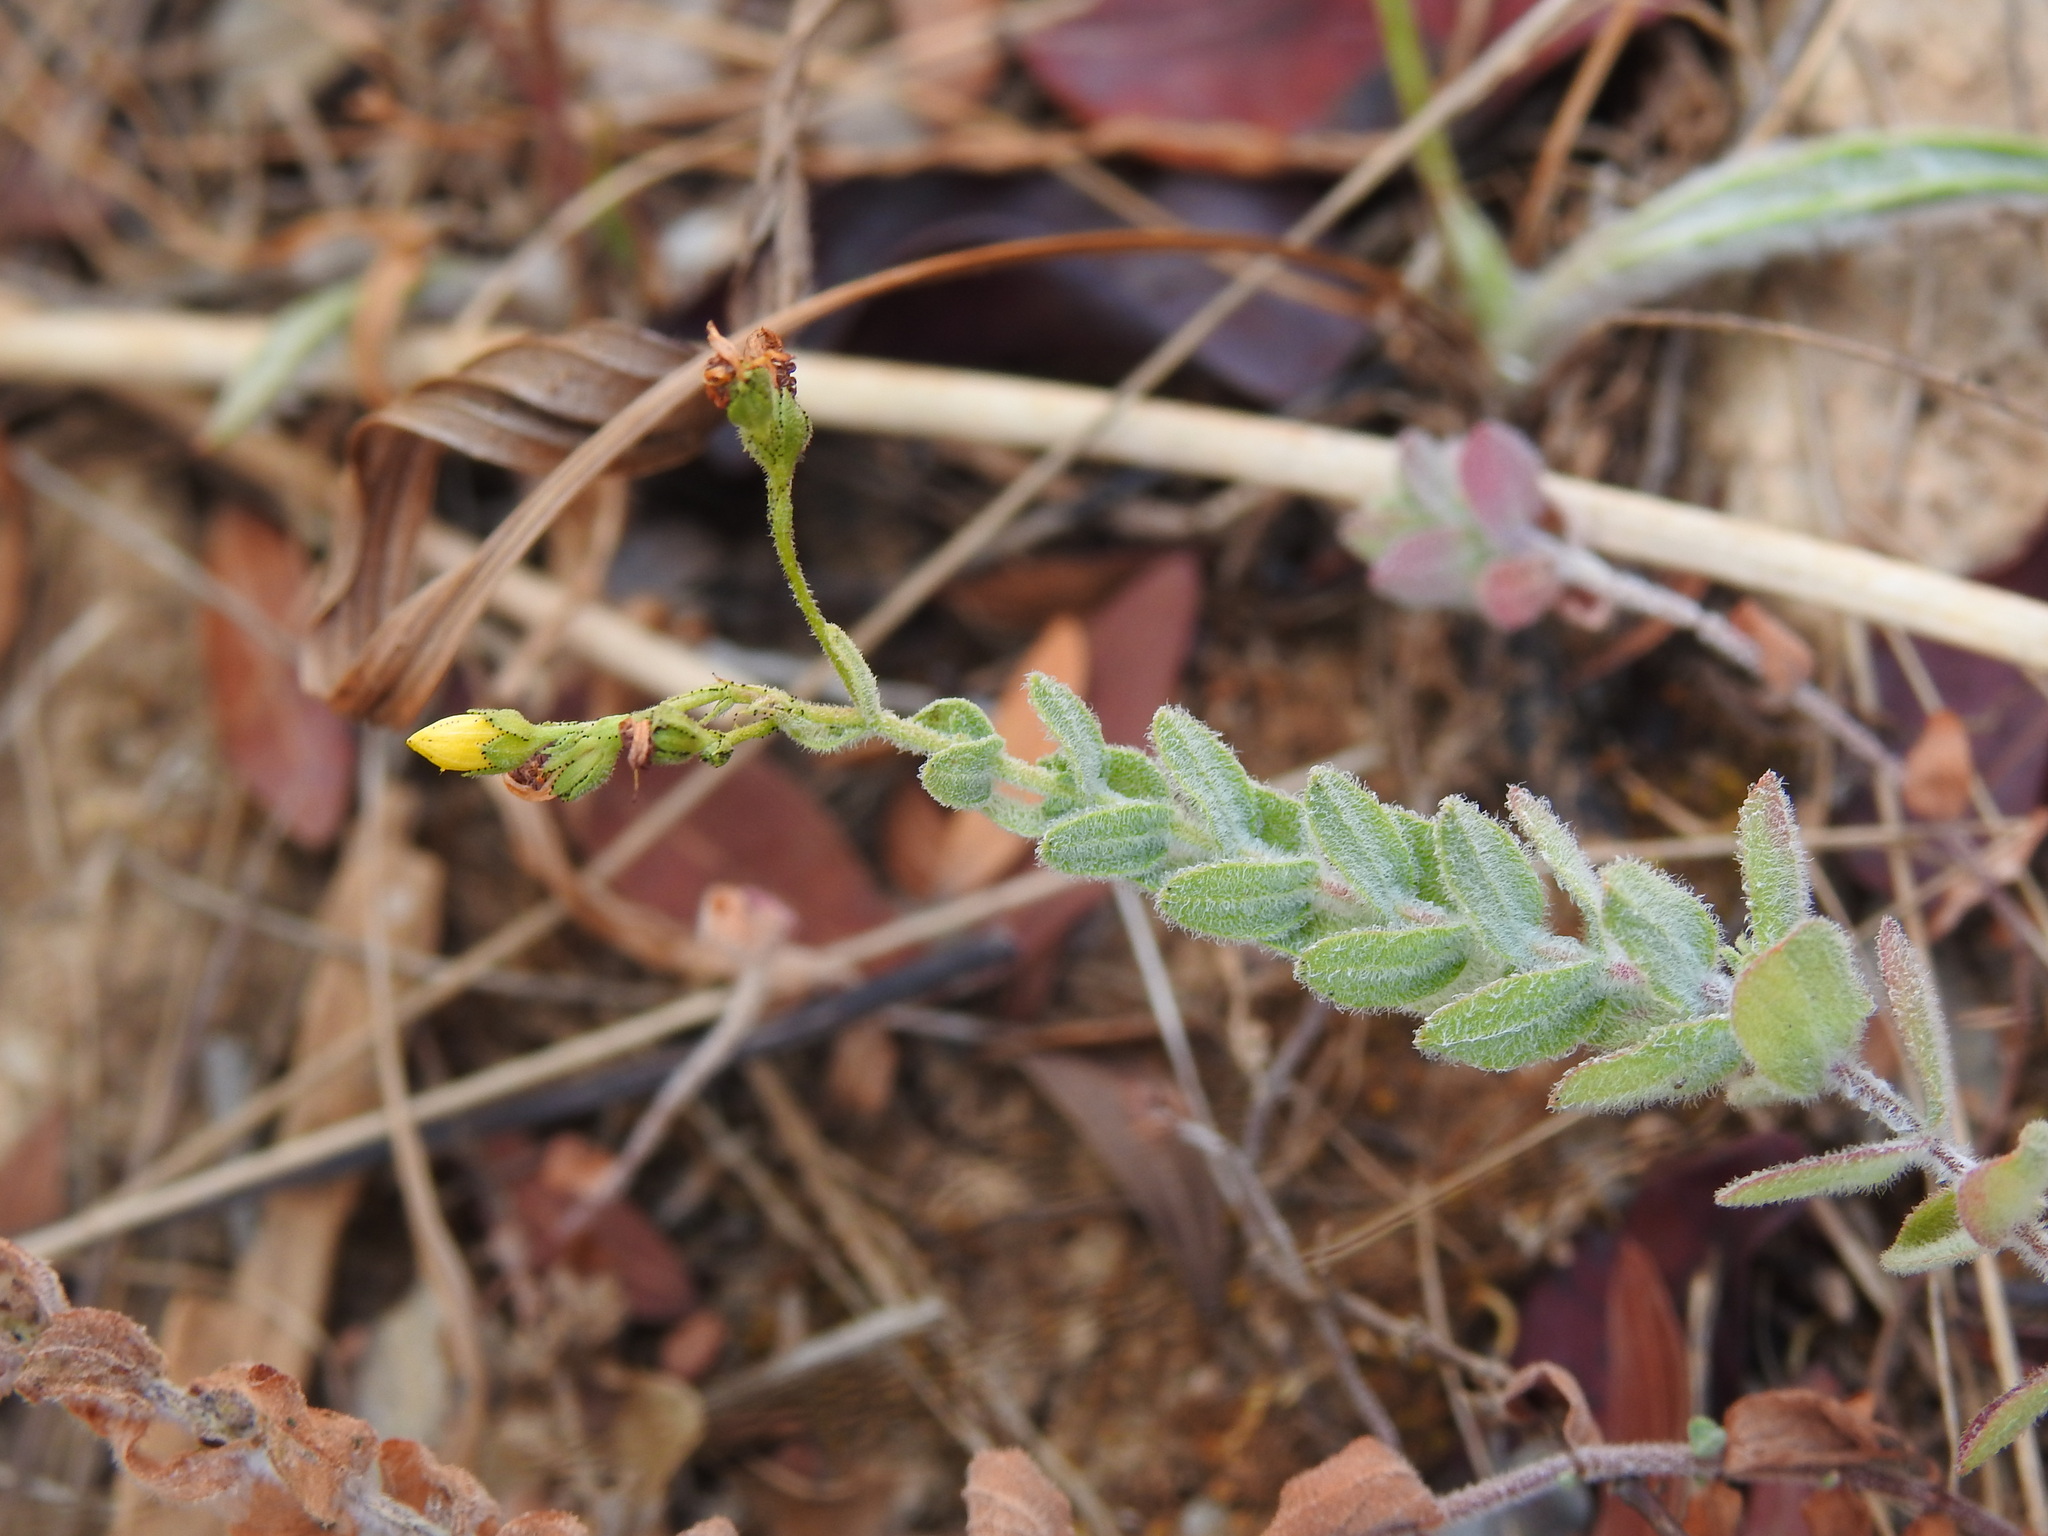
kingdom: Plantae
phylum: Tracheophyta
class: Magnoliopsida
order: Malpighiales
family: Hypericaceae
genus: Hypericum
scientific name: Hypericum tomentosum
